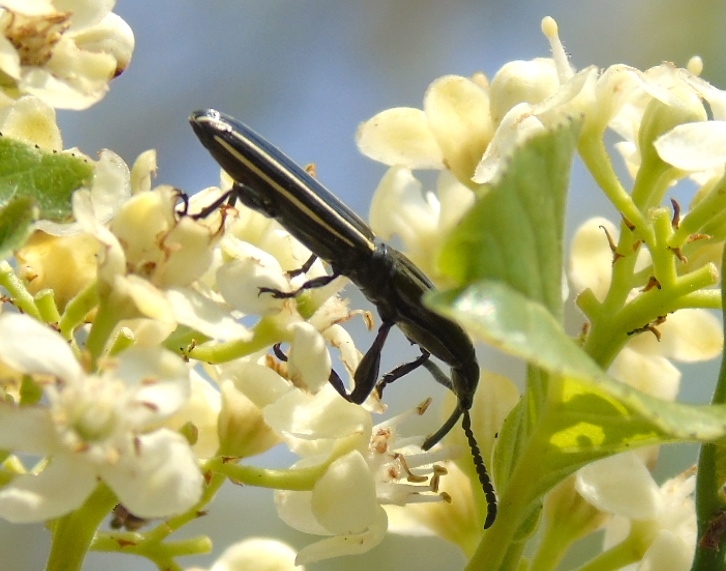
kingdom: Animalia
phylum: Arthropoda
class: Insecta
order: Coleoptera
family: Brentidae
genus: Brentus
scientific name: Brentus anchorago
